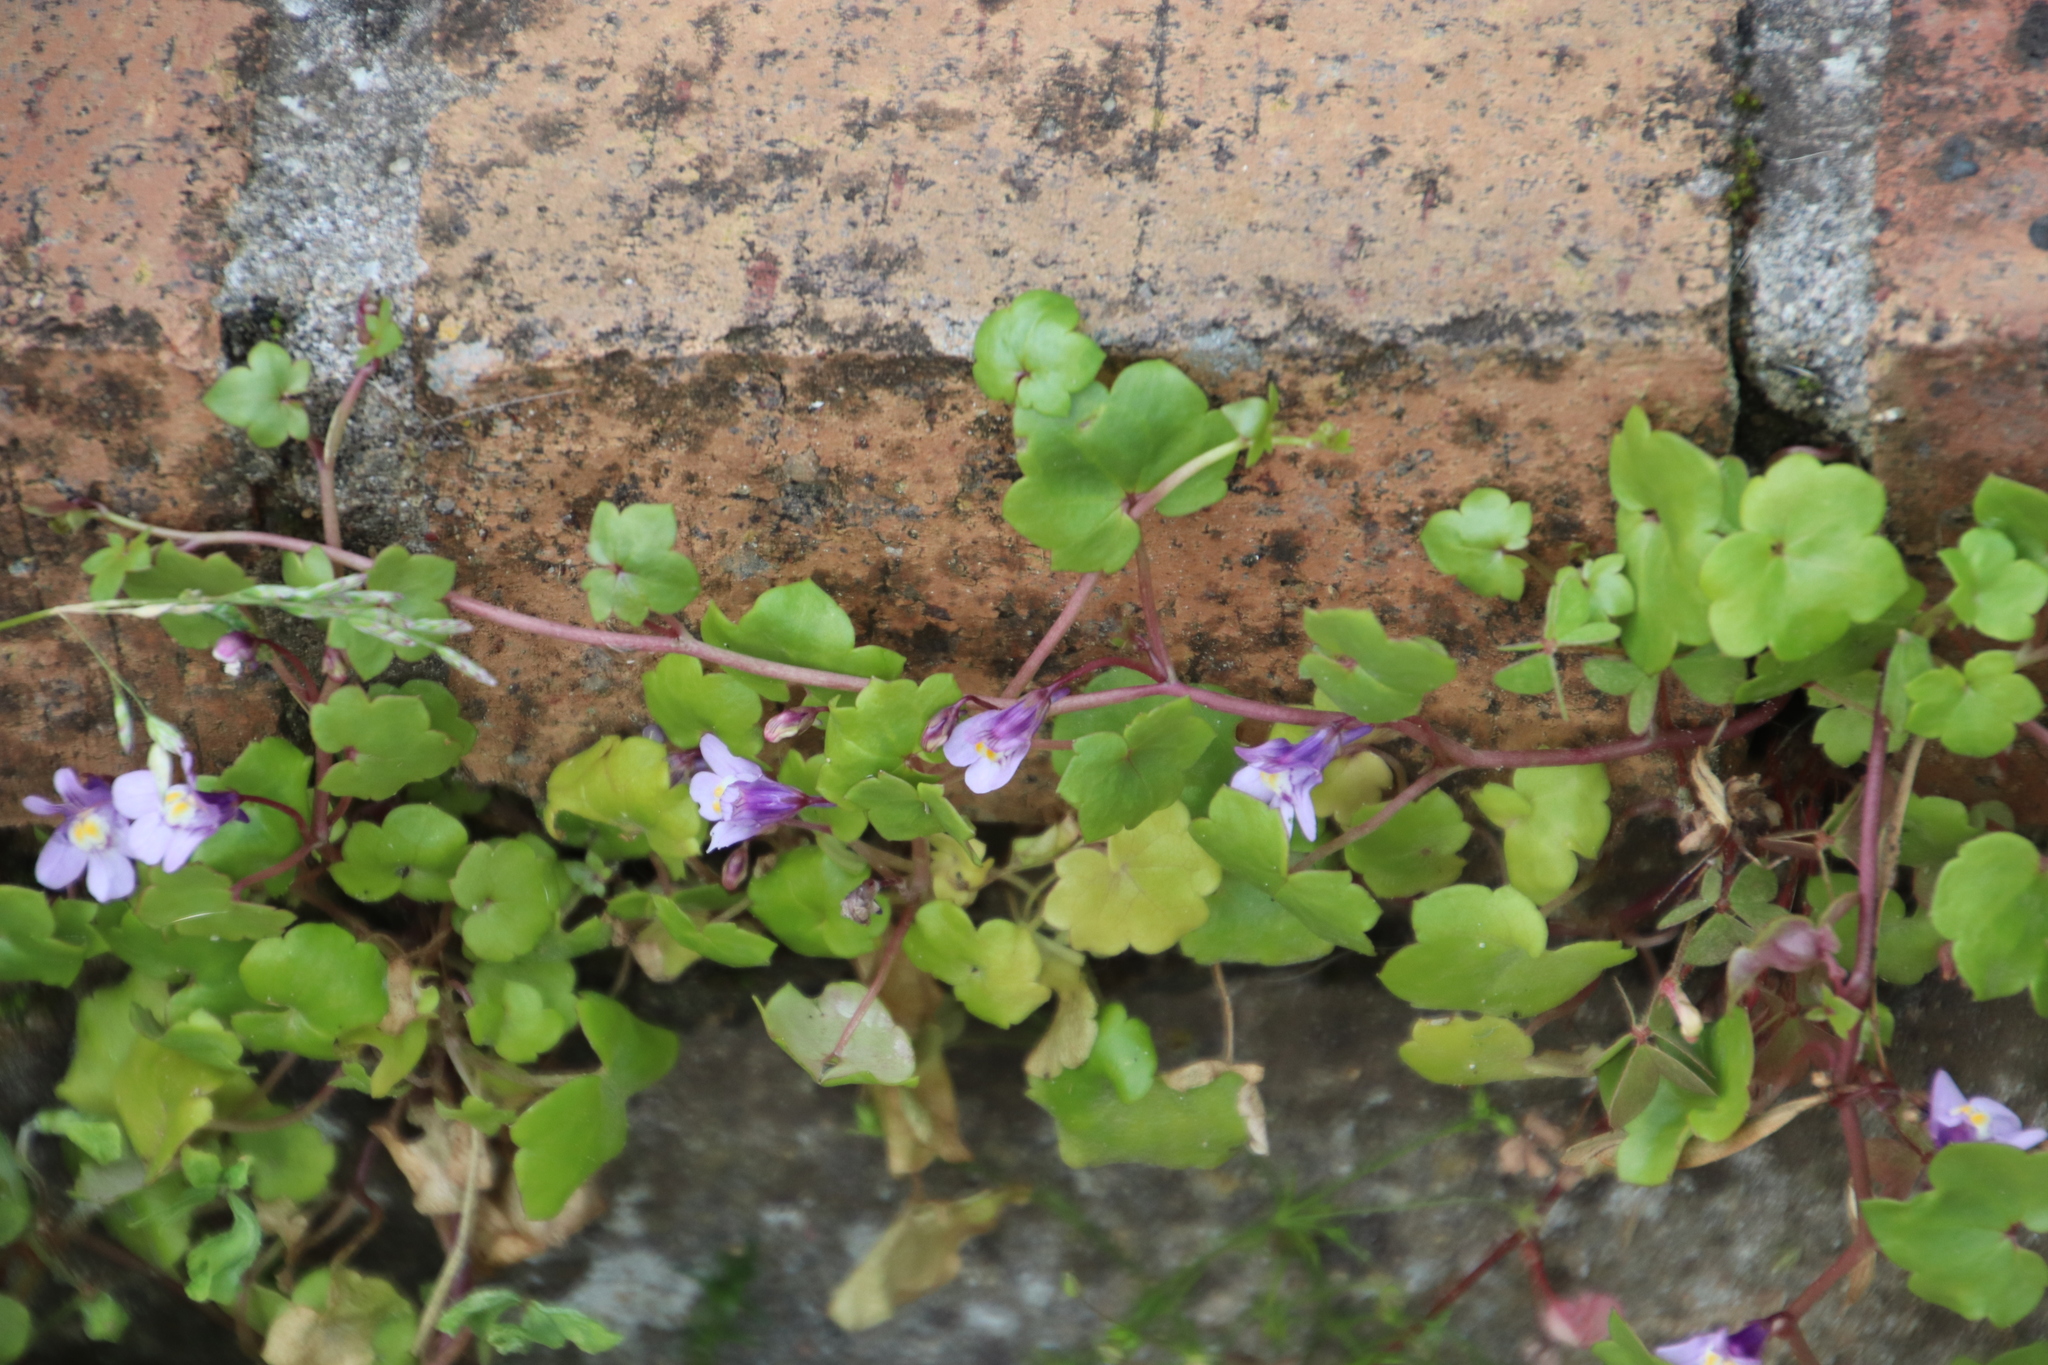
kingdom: Plantae
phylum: Tracheophyta
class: Magnoliopsida
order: Lamiales
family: Plantaginaceae
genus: Cymbalaria
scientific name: Cymbalaria muralis
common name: Ivy-leaved toadflax
